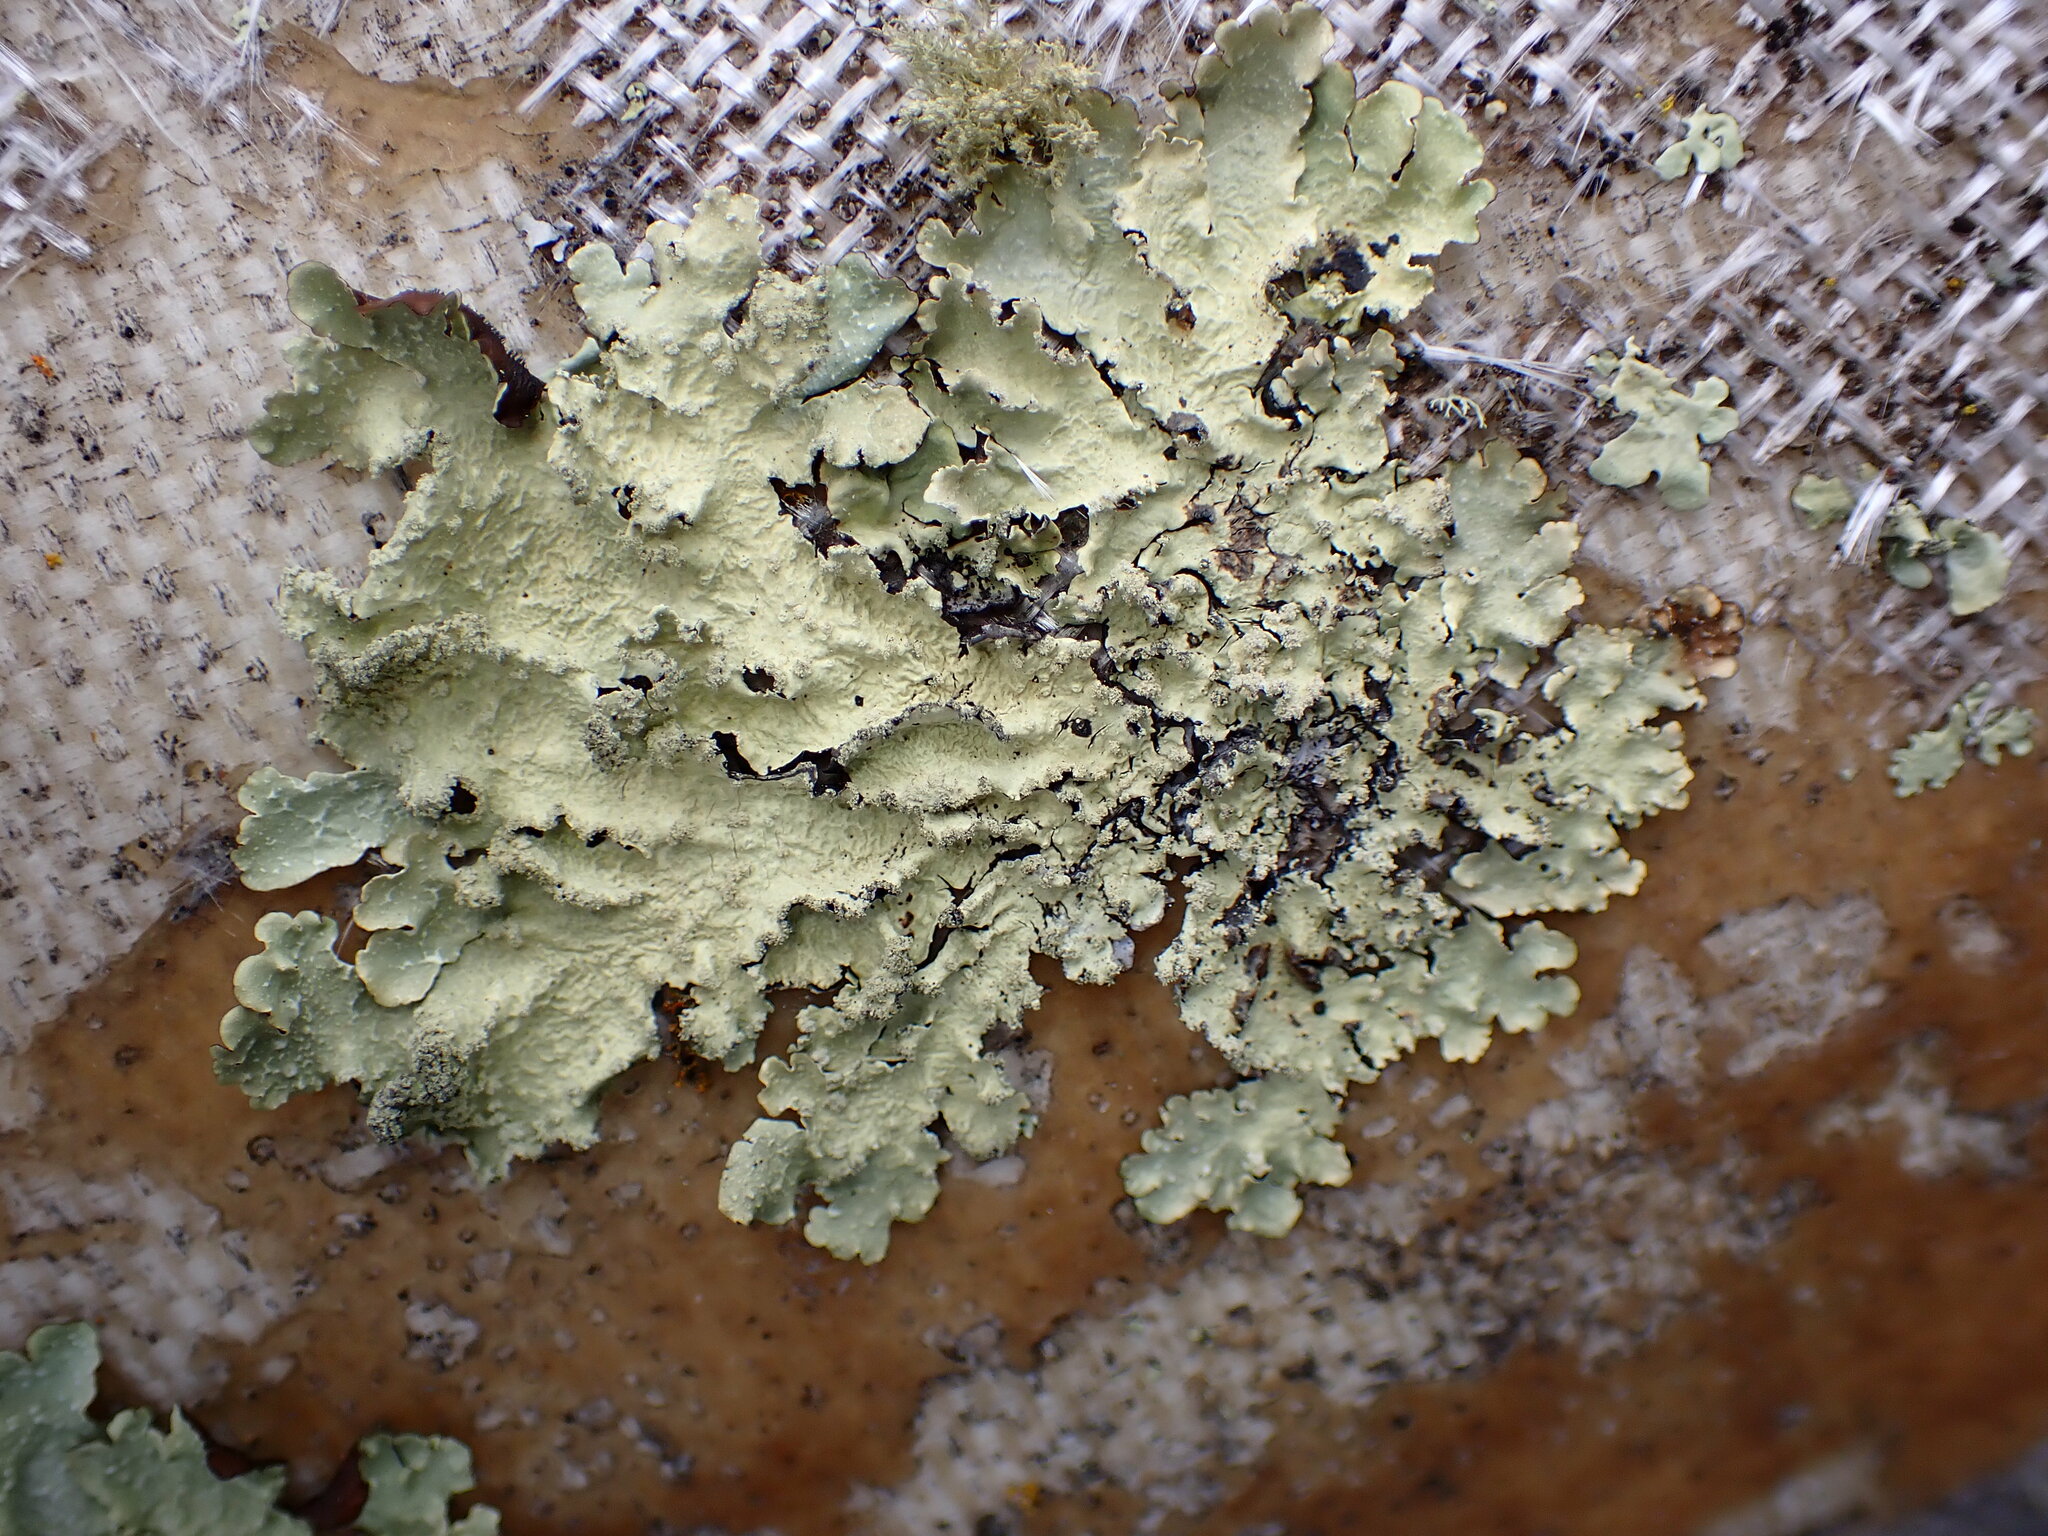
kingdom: Fungi
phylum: Ascomycota
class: Lecanoromycetes
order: Lecanorales
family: Parmeliaceae
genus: Flavoparmelia
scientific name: Flavoparmelia caperata
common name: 40-mile per hour lichen
